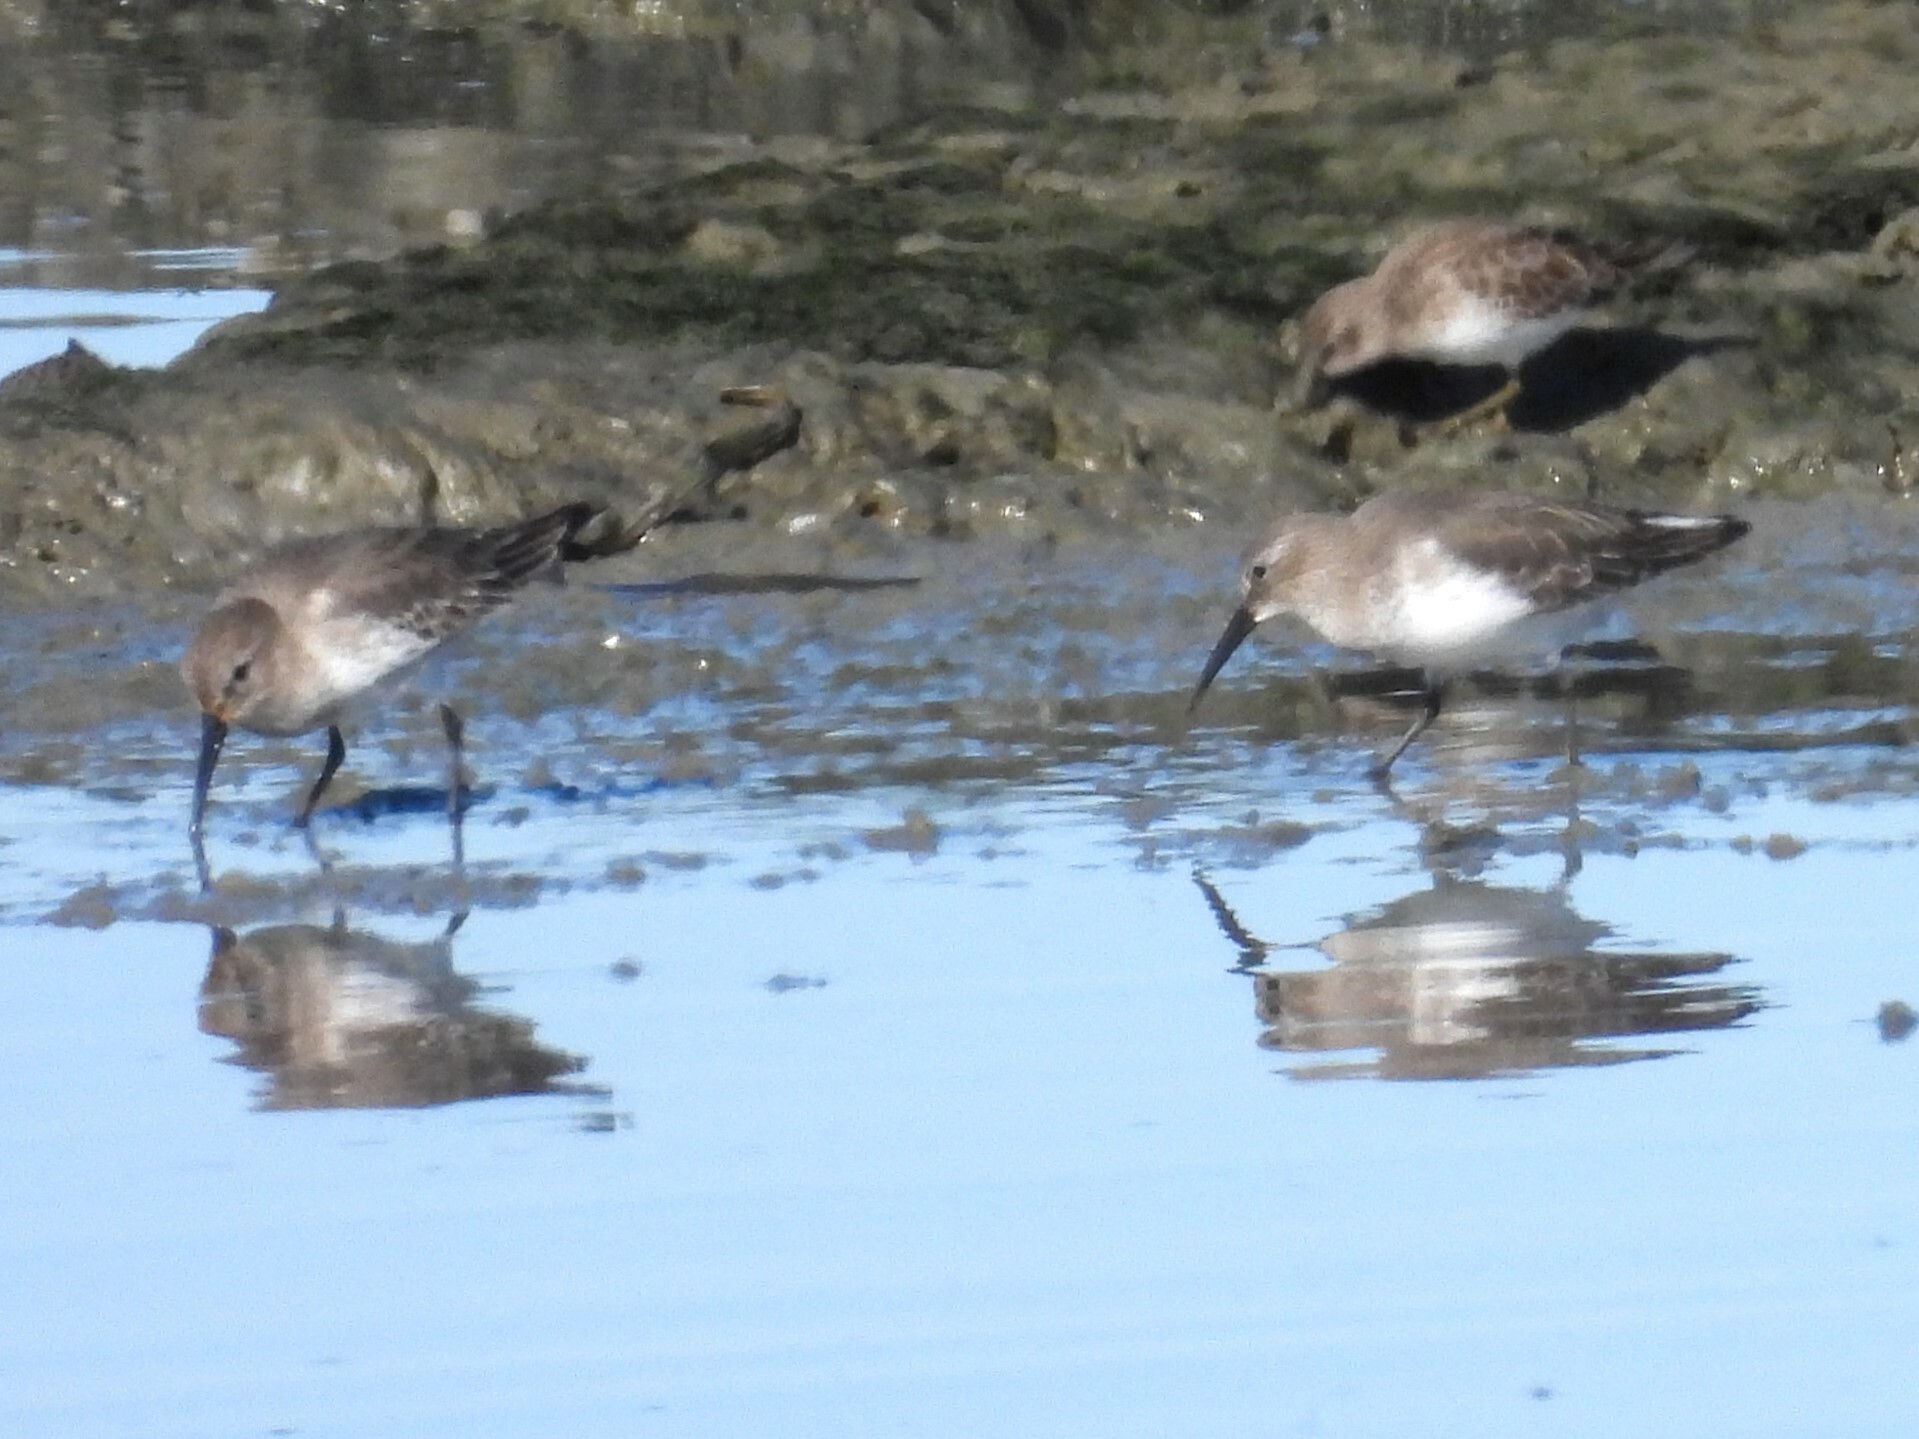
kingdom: Animalia
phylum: Chordata
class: Aves
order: Charadriiformes
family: Scolopacidae
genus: Calidris
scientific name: Calidris alpina
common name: Dunlin
